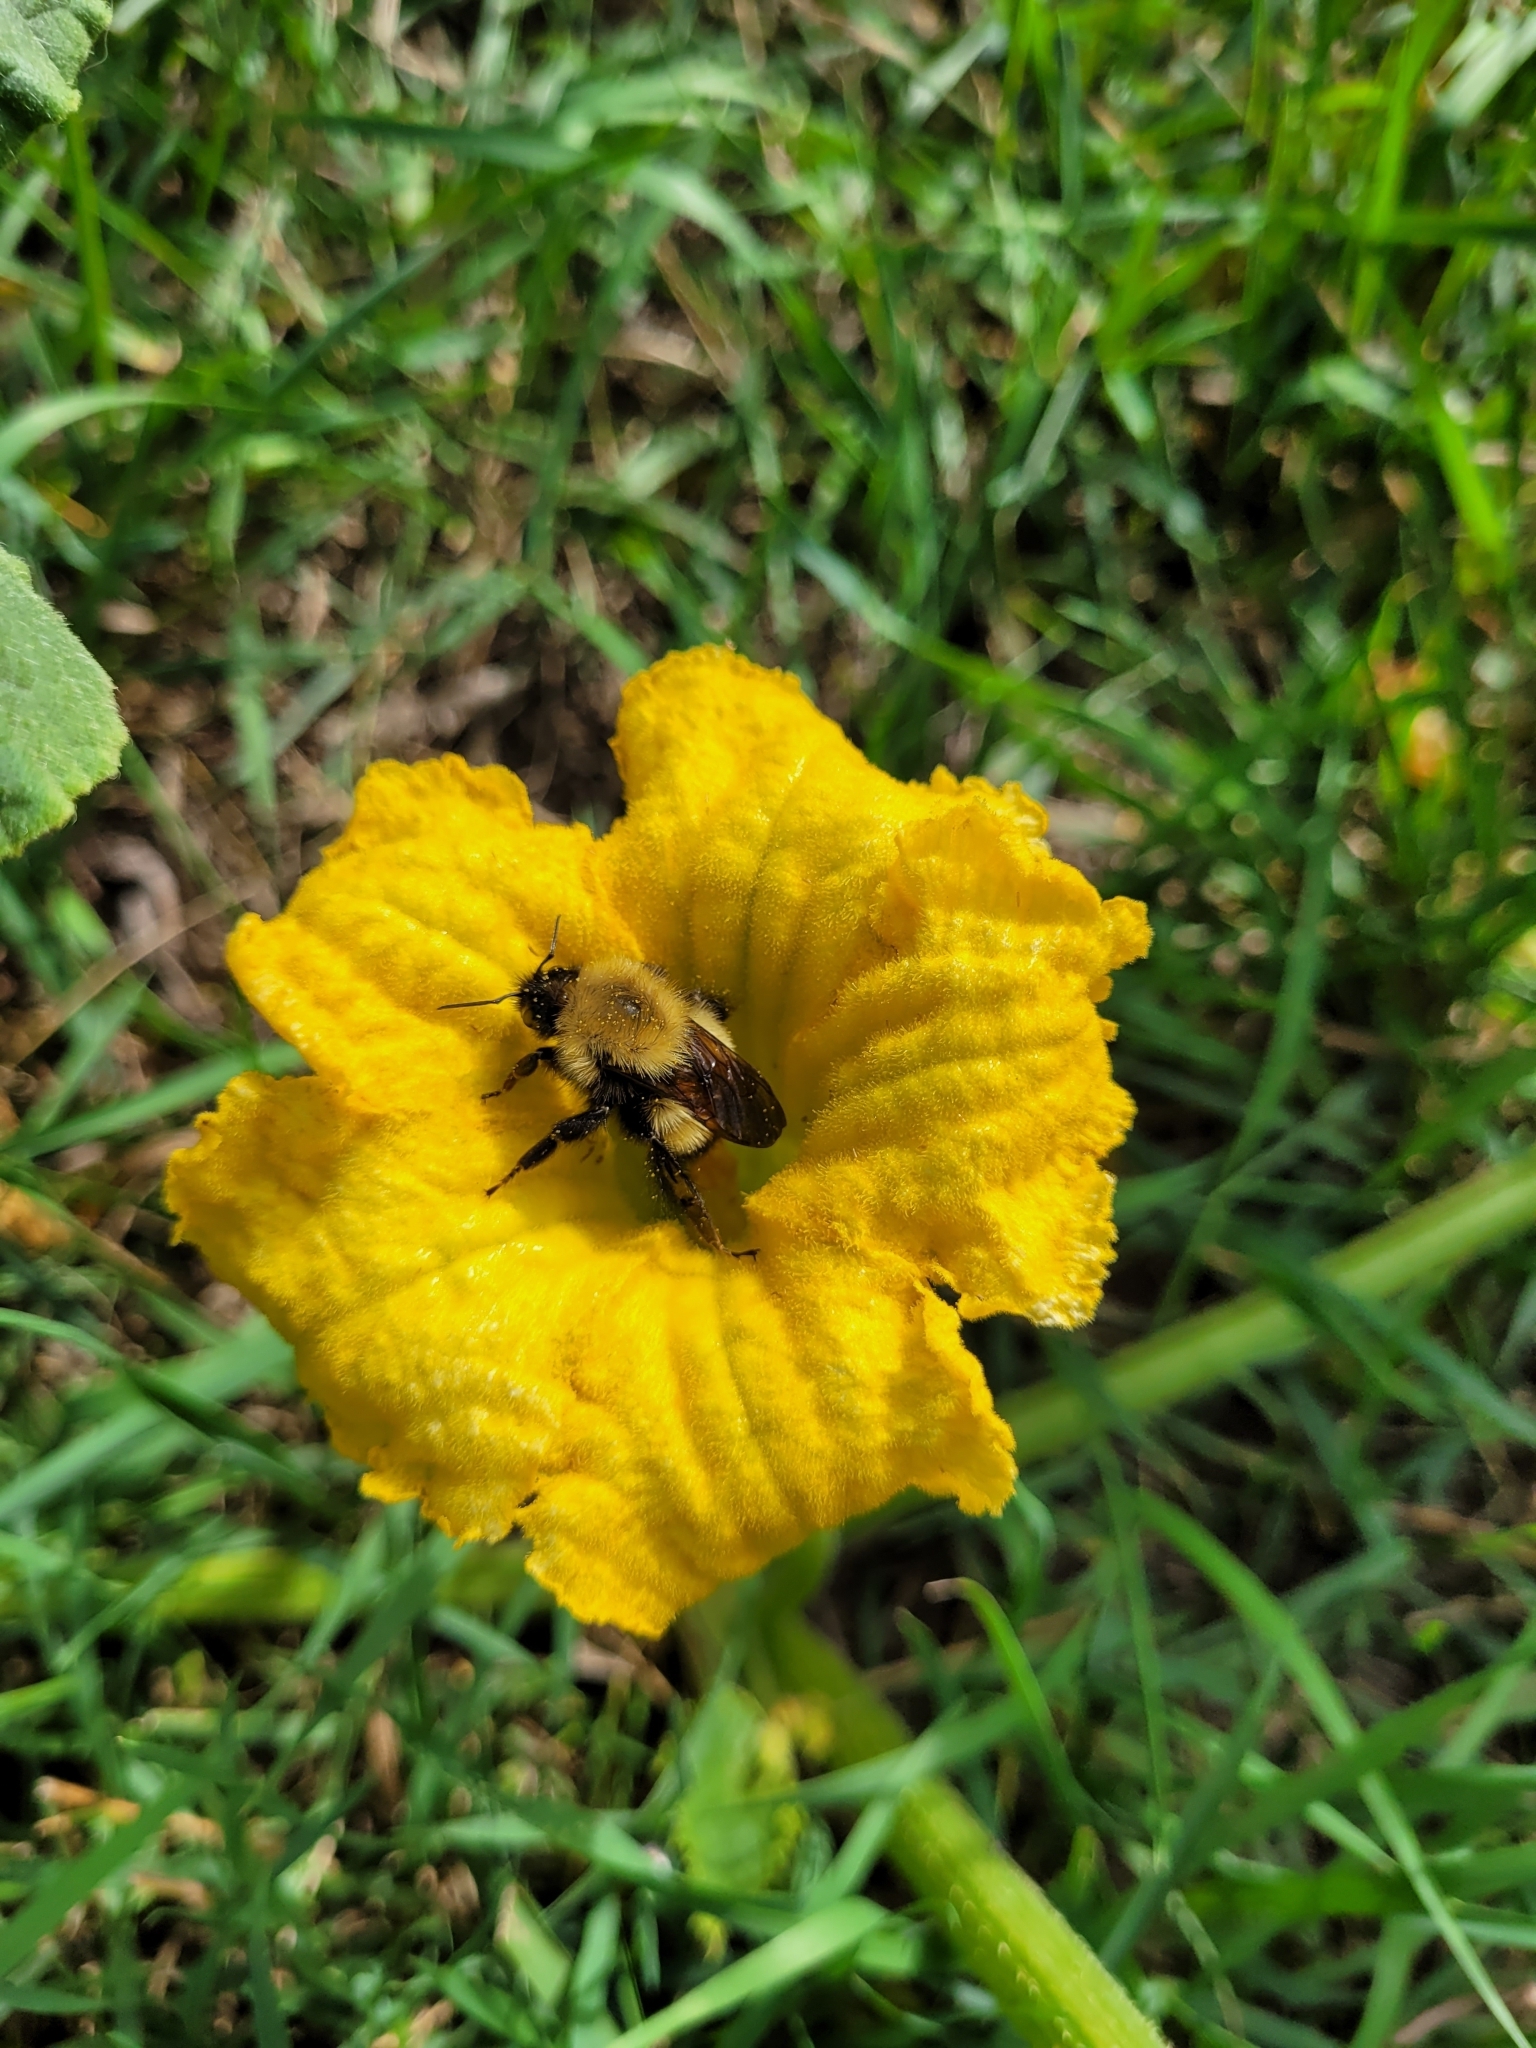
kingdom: Animalia
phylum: Arthropoda
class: Insecta
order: Hymenoptera
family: Apidae
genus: Bombus
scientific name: Bombus perplexus
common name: Confusing bumble bee
